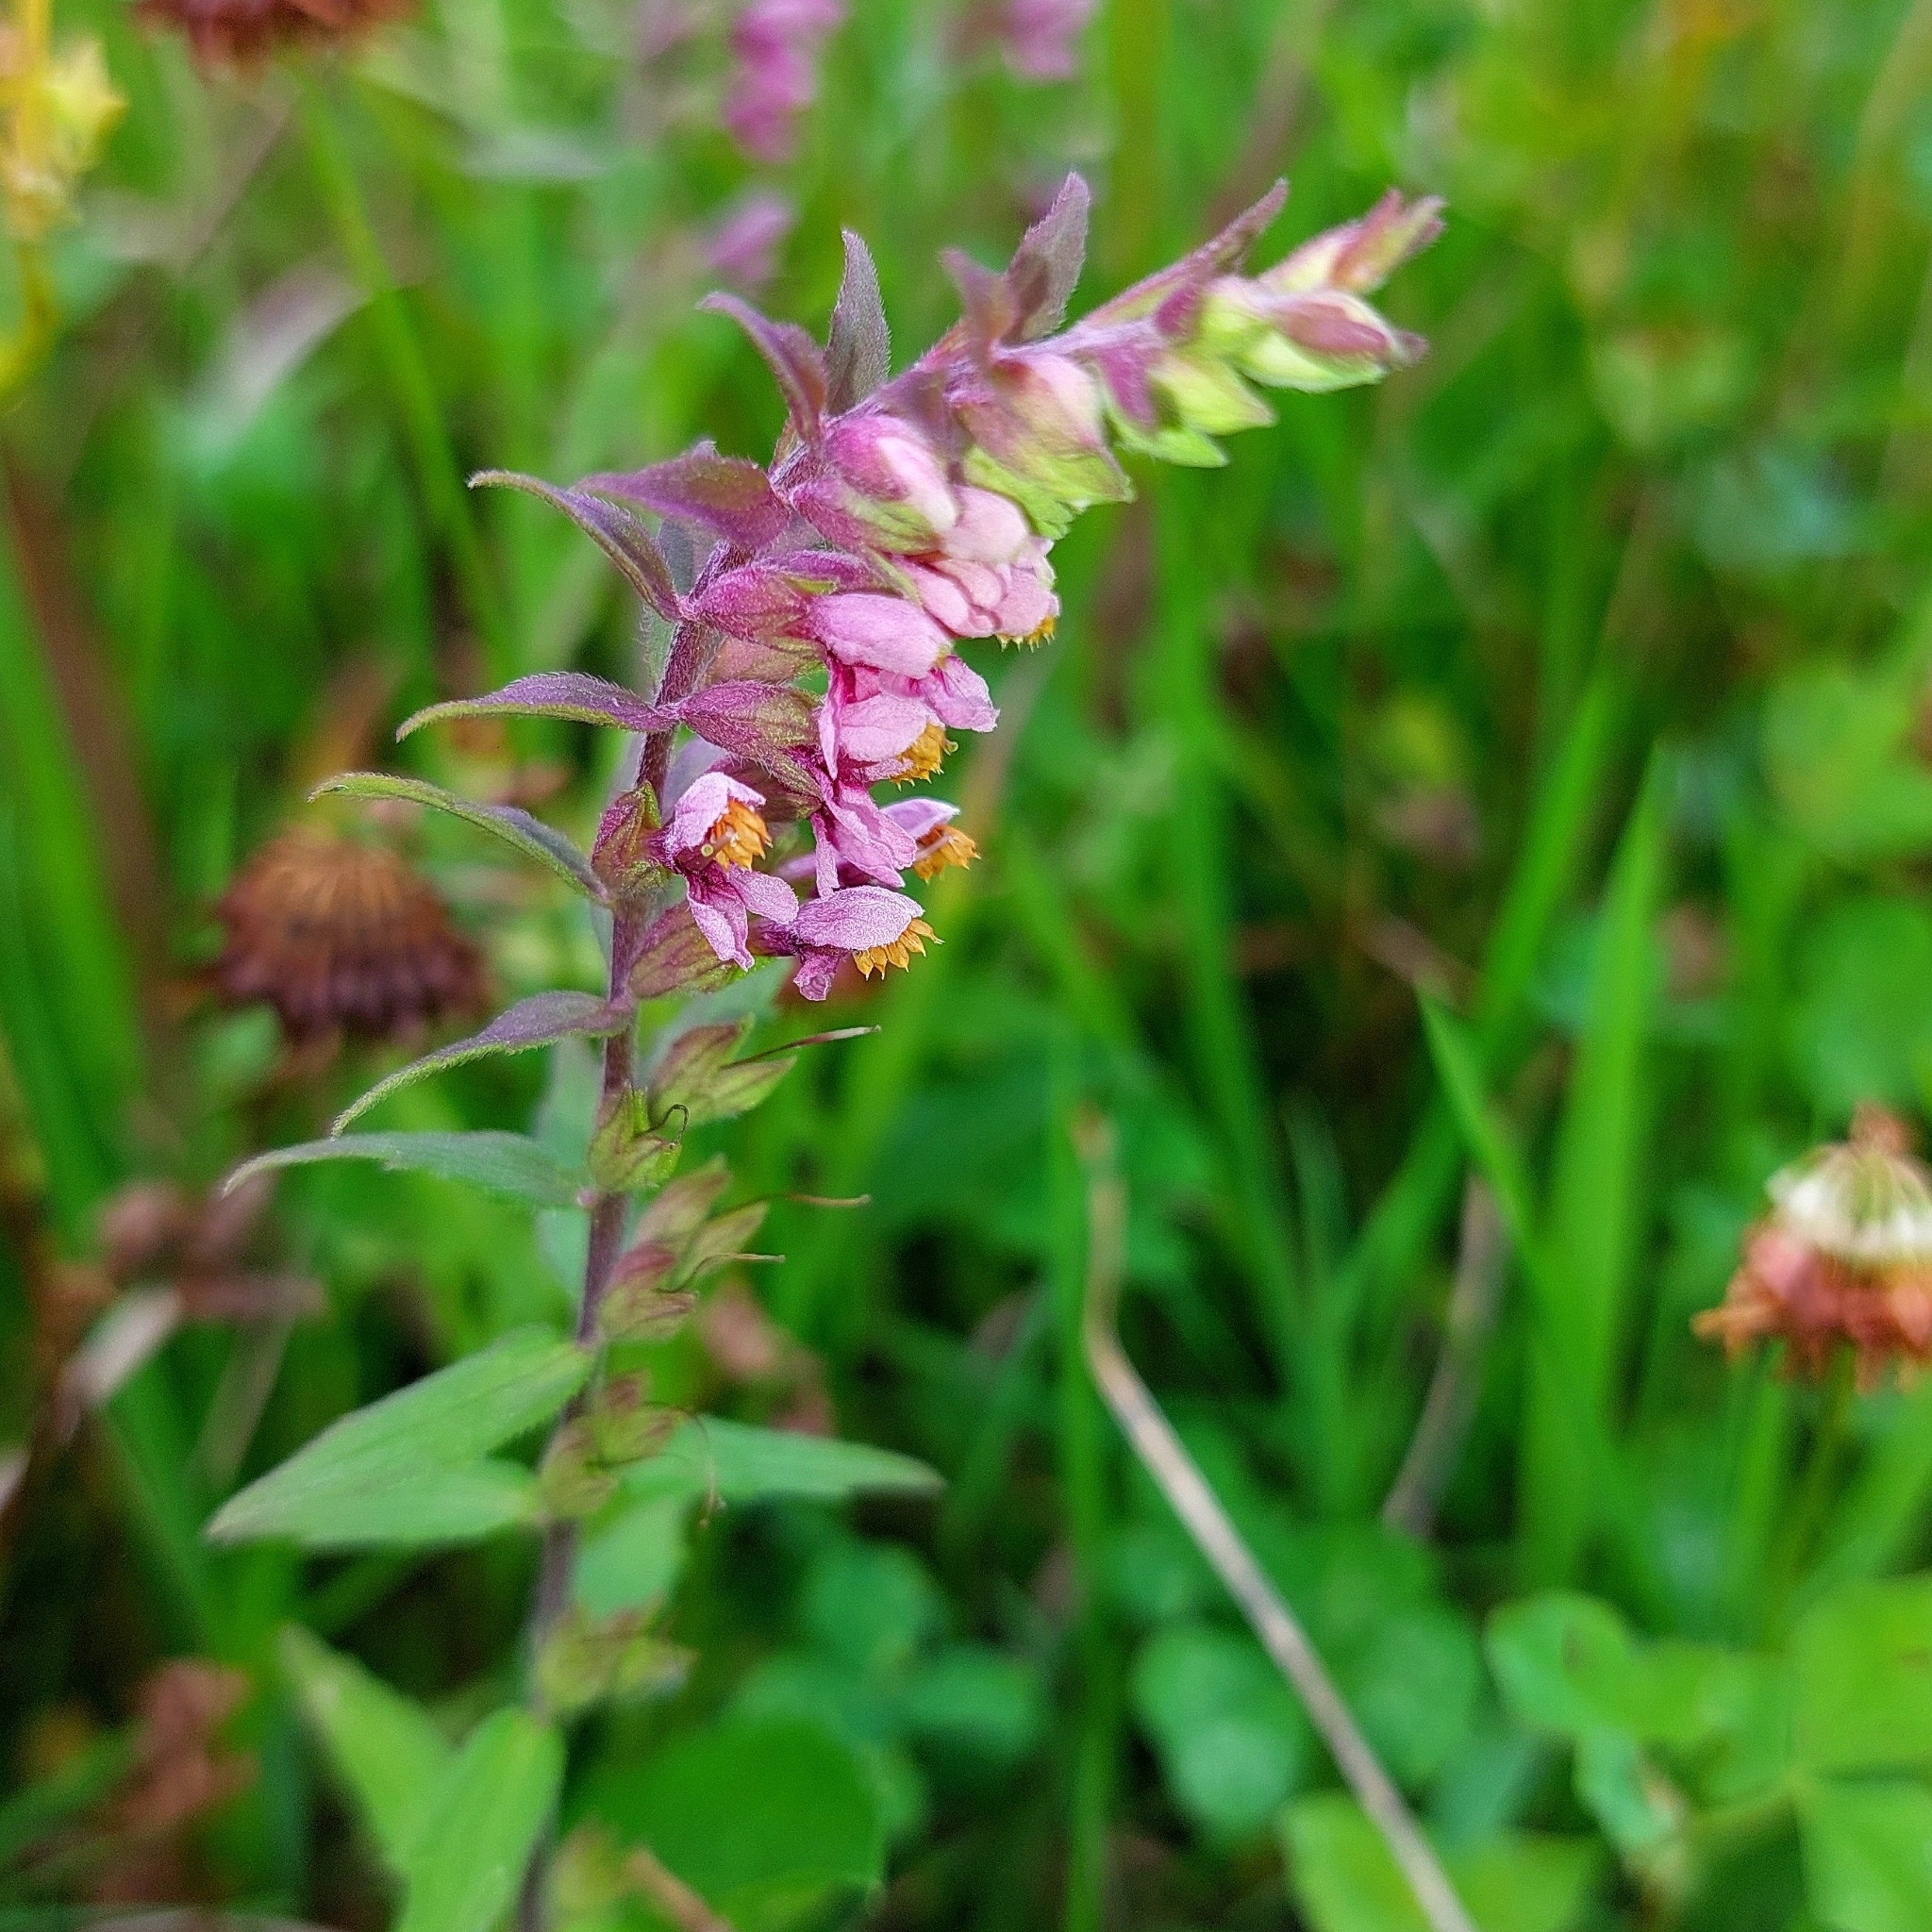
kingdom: Plantae
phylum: Tracheophyta
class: Magnoliopsida
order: Lamiales
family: Orobanchaceae
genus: Odontites
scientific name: Odontites vulgaris
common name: Broomrape
